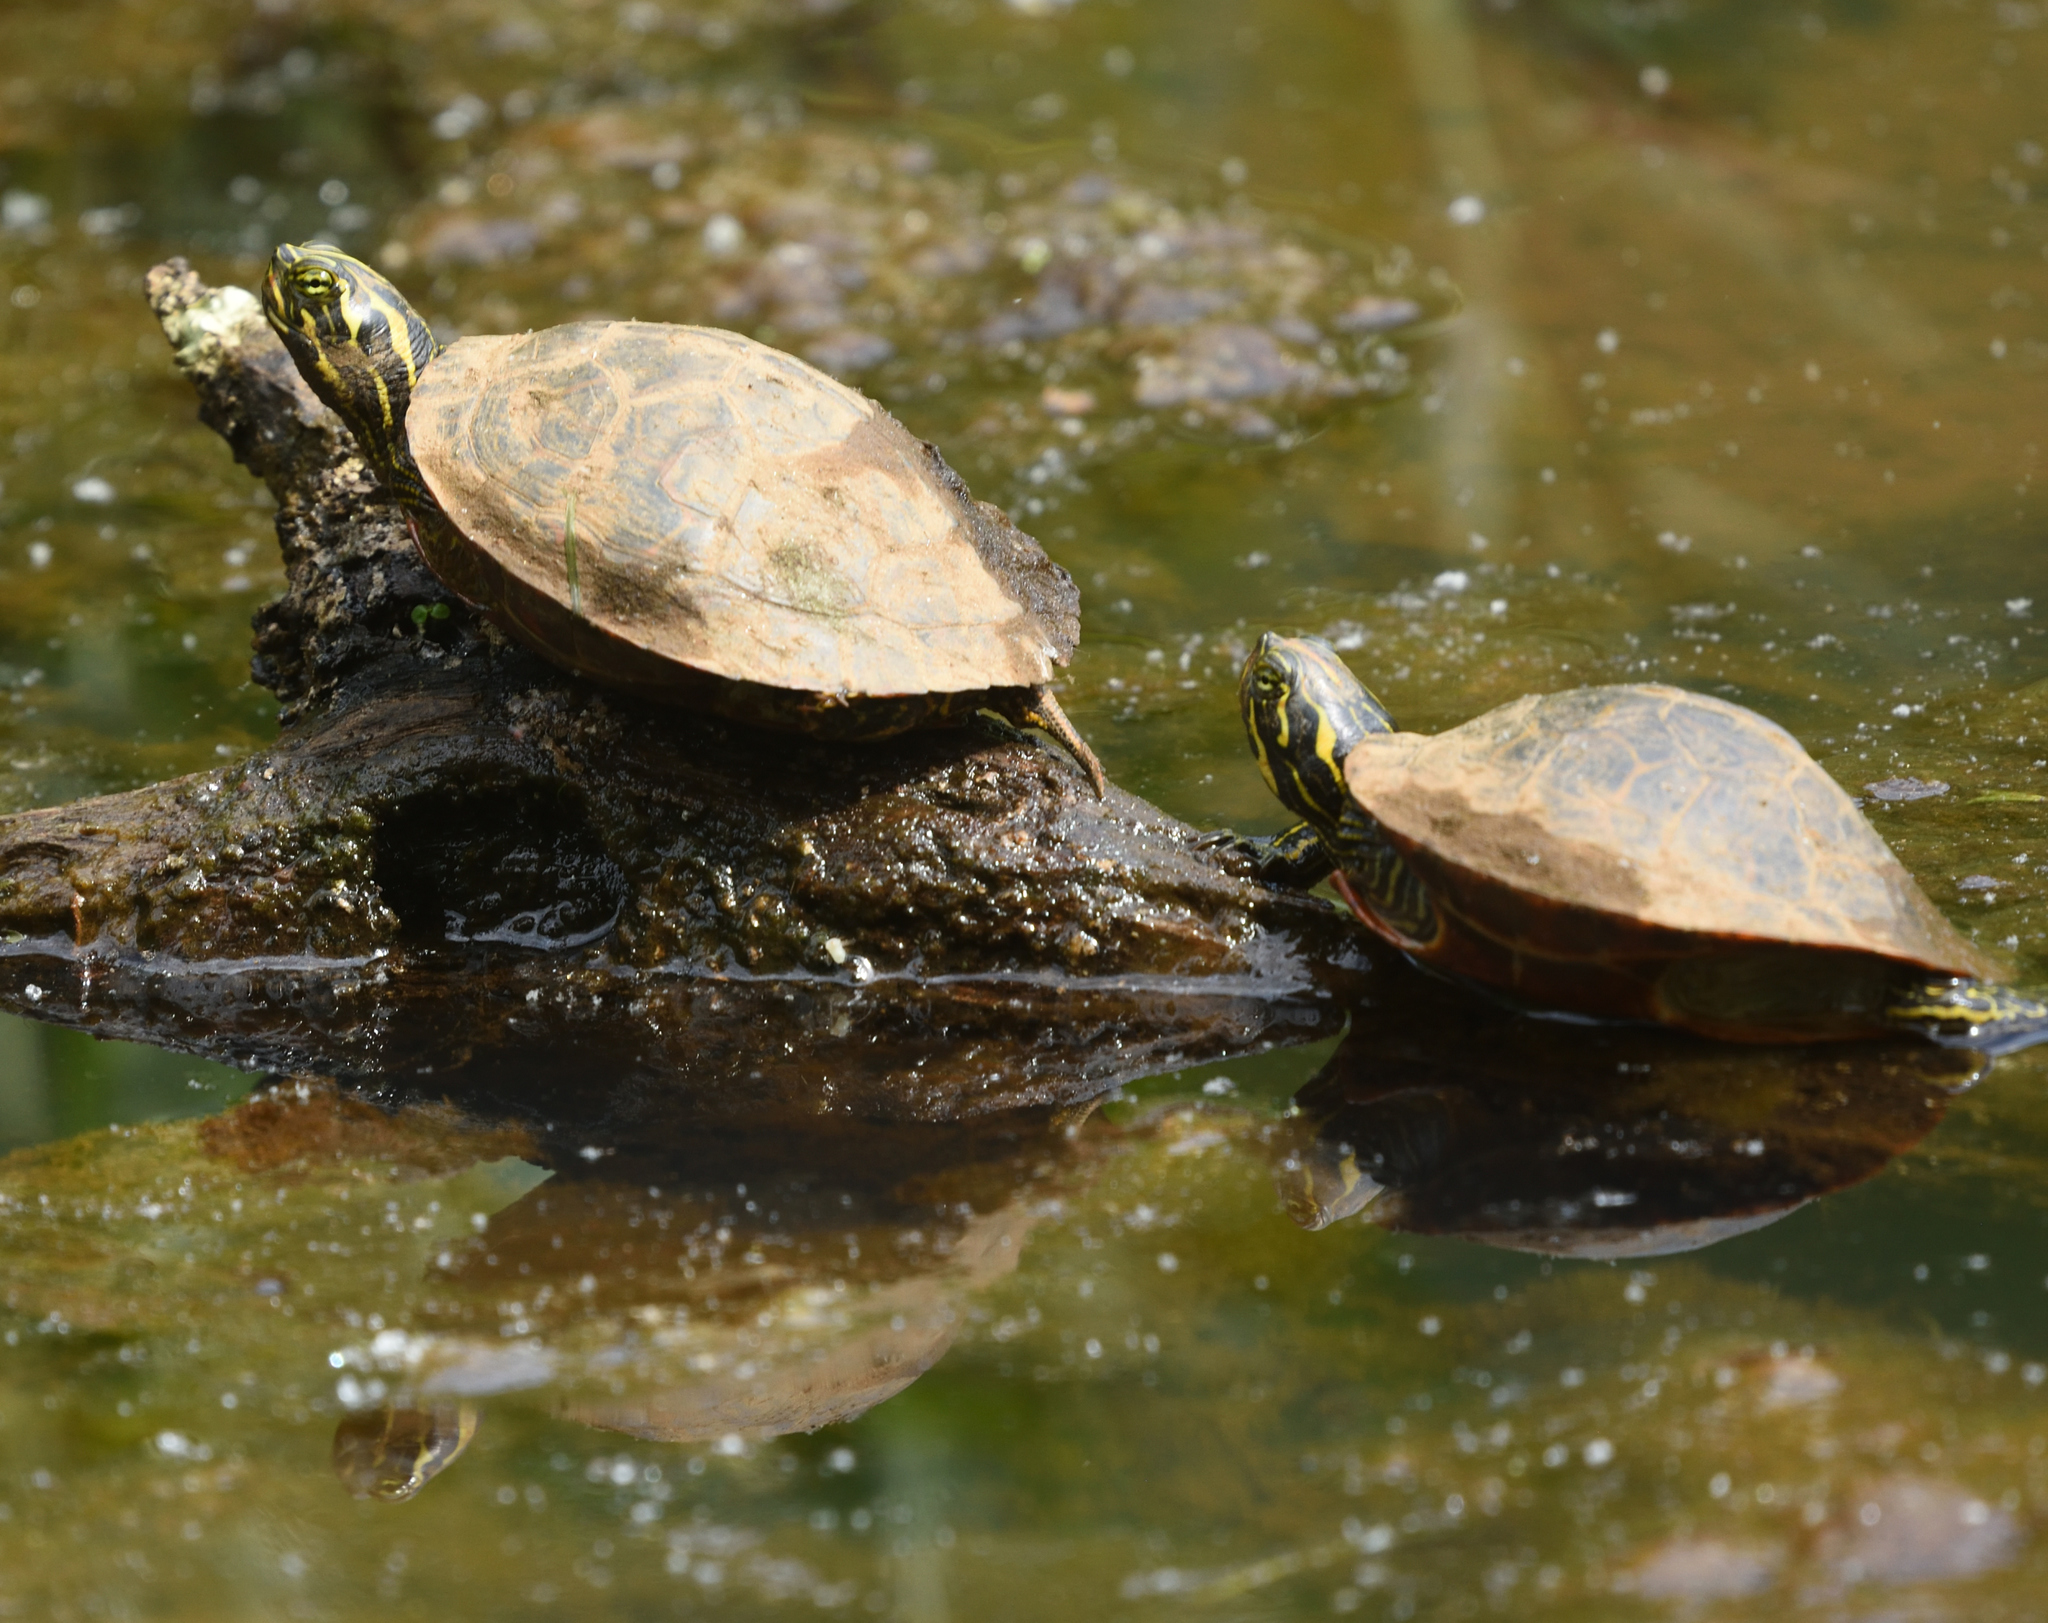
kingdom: Animalia
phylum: Chordata
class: Testudines
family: Emydidae
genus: Pseudemys
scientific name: Pseudemys concinna
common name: Eastern river cooter
